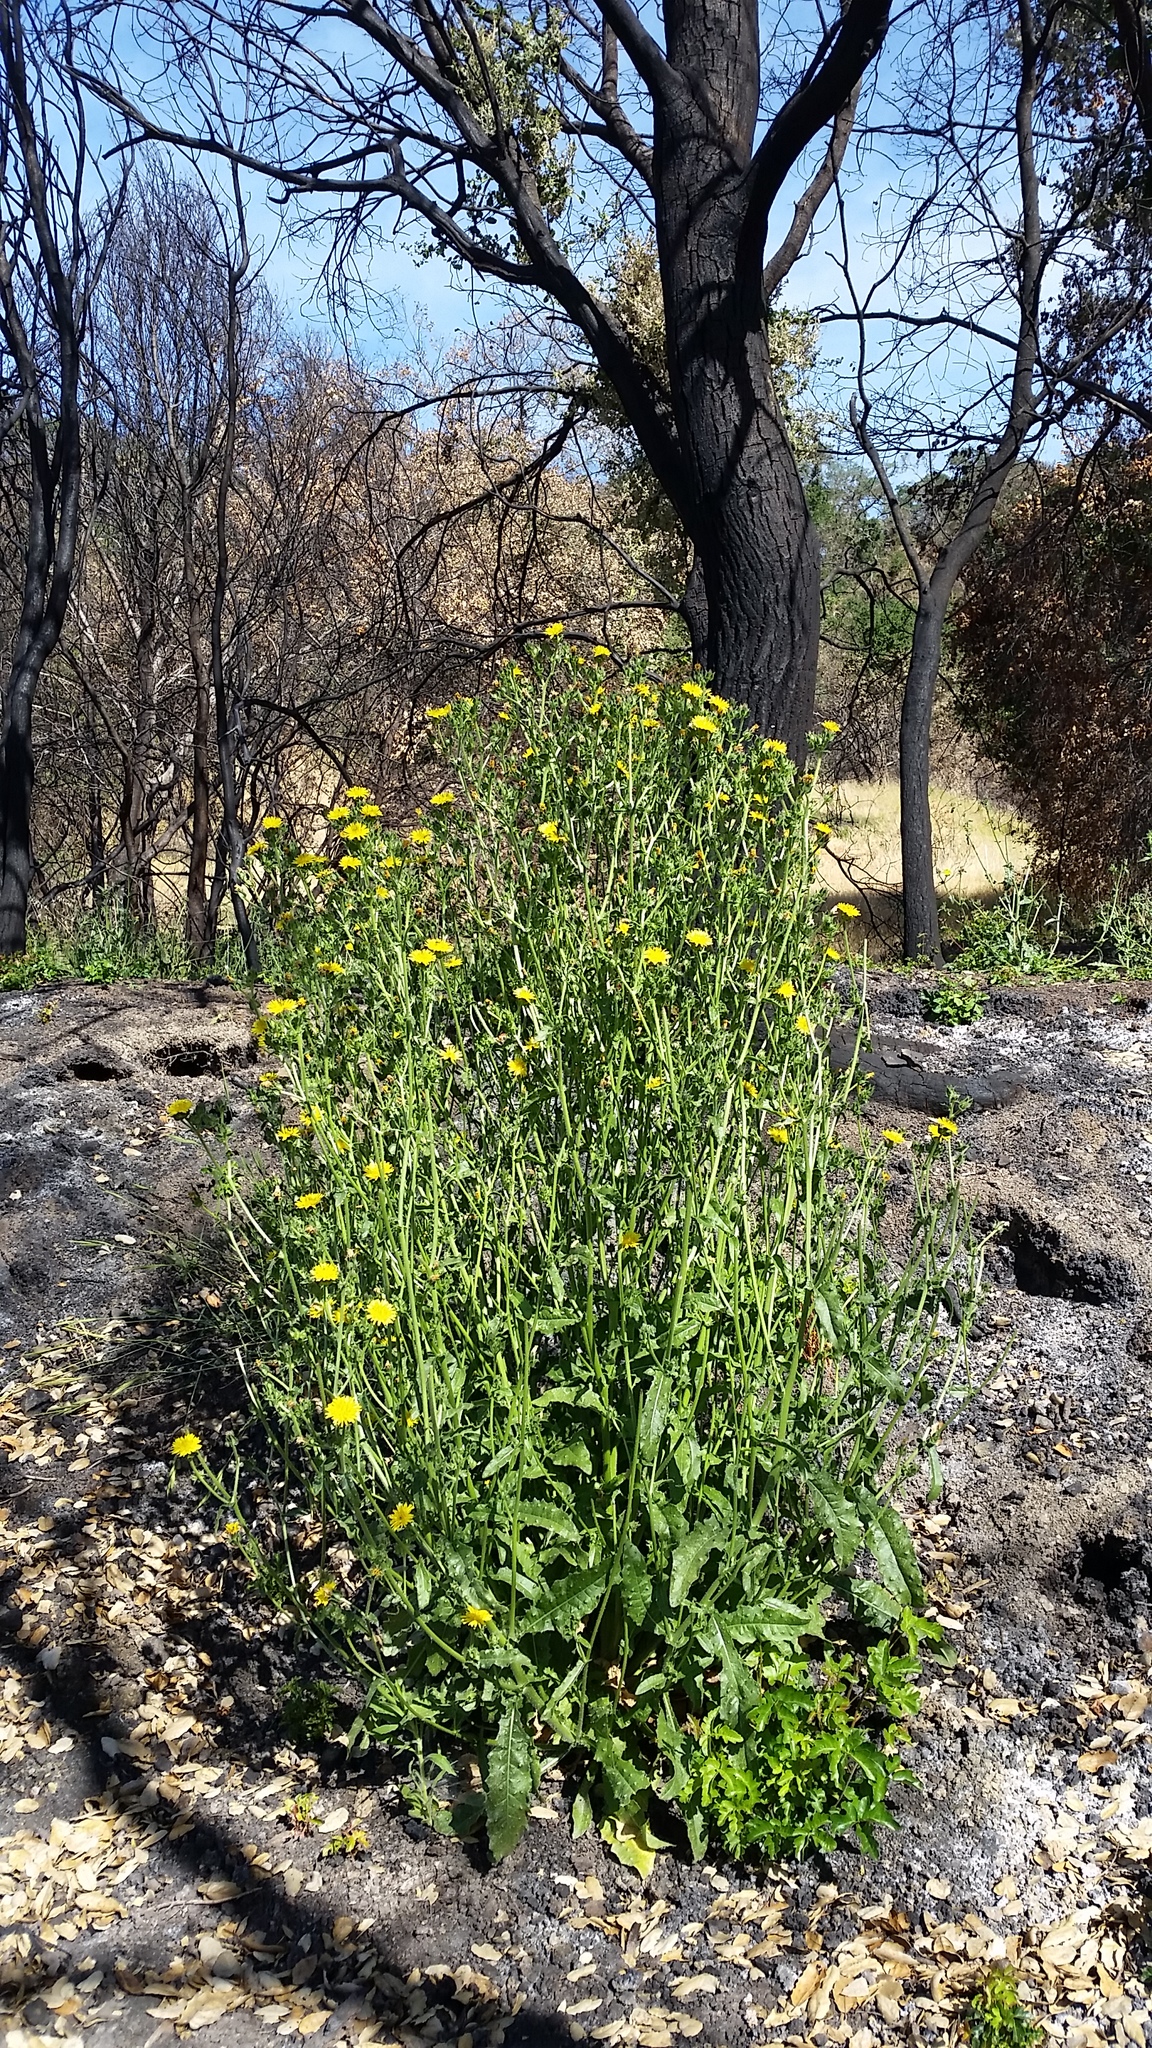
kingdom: Plantae
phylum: Tracheophyta
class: Magnoliopsida
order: Asterales
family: Asteraceae
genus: Helminthotheca
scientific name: Helminthotheca echioides
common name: Ox-tongue
